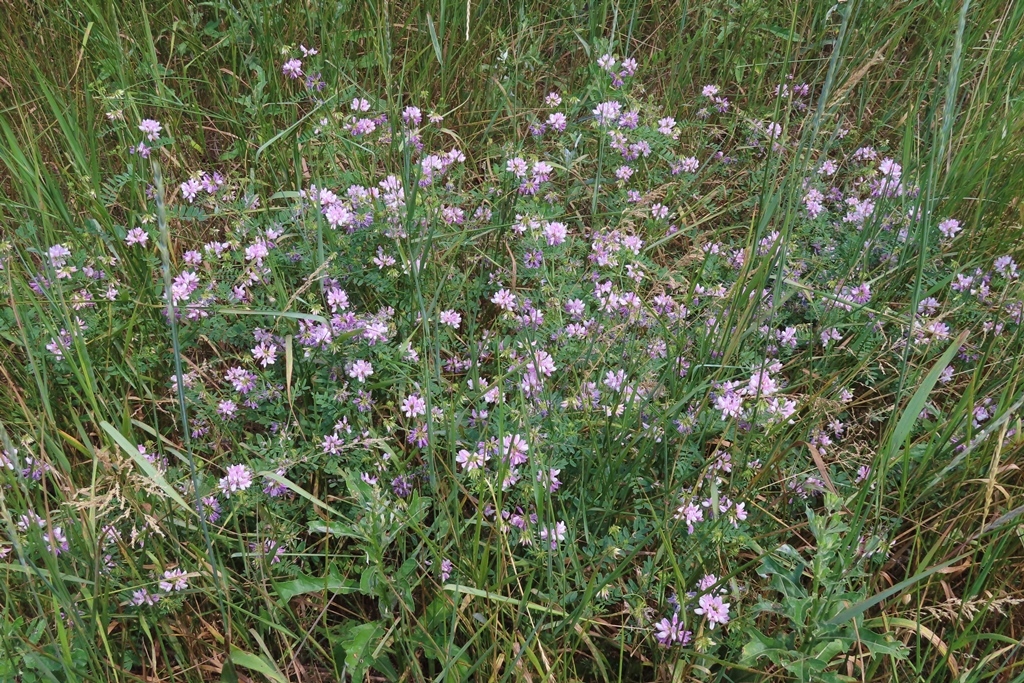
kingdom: Plantae
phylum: Tracheophyta
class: Magnoliopsida
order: Fabales
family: Fabaceae
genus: Coronilla
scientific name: Coronilla varia
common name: Crownvetch
